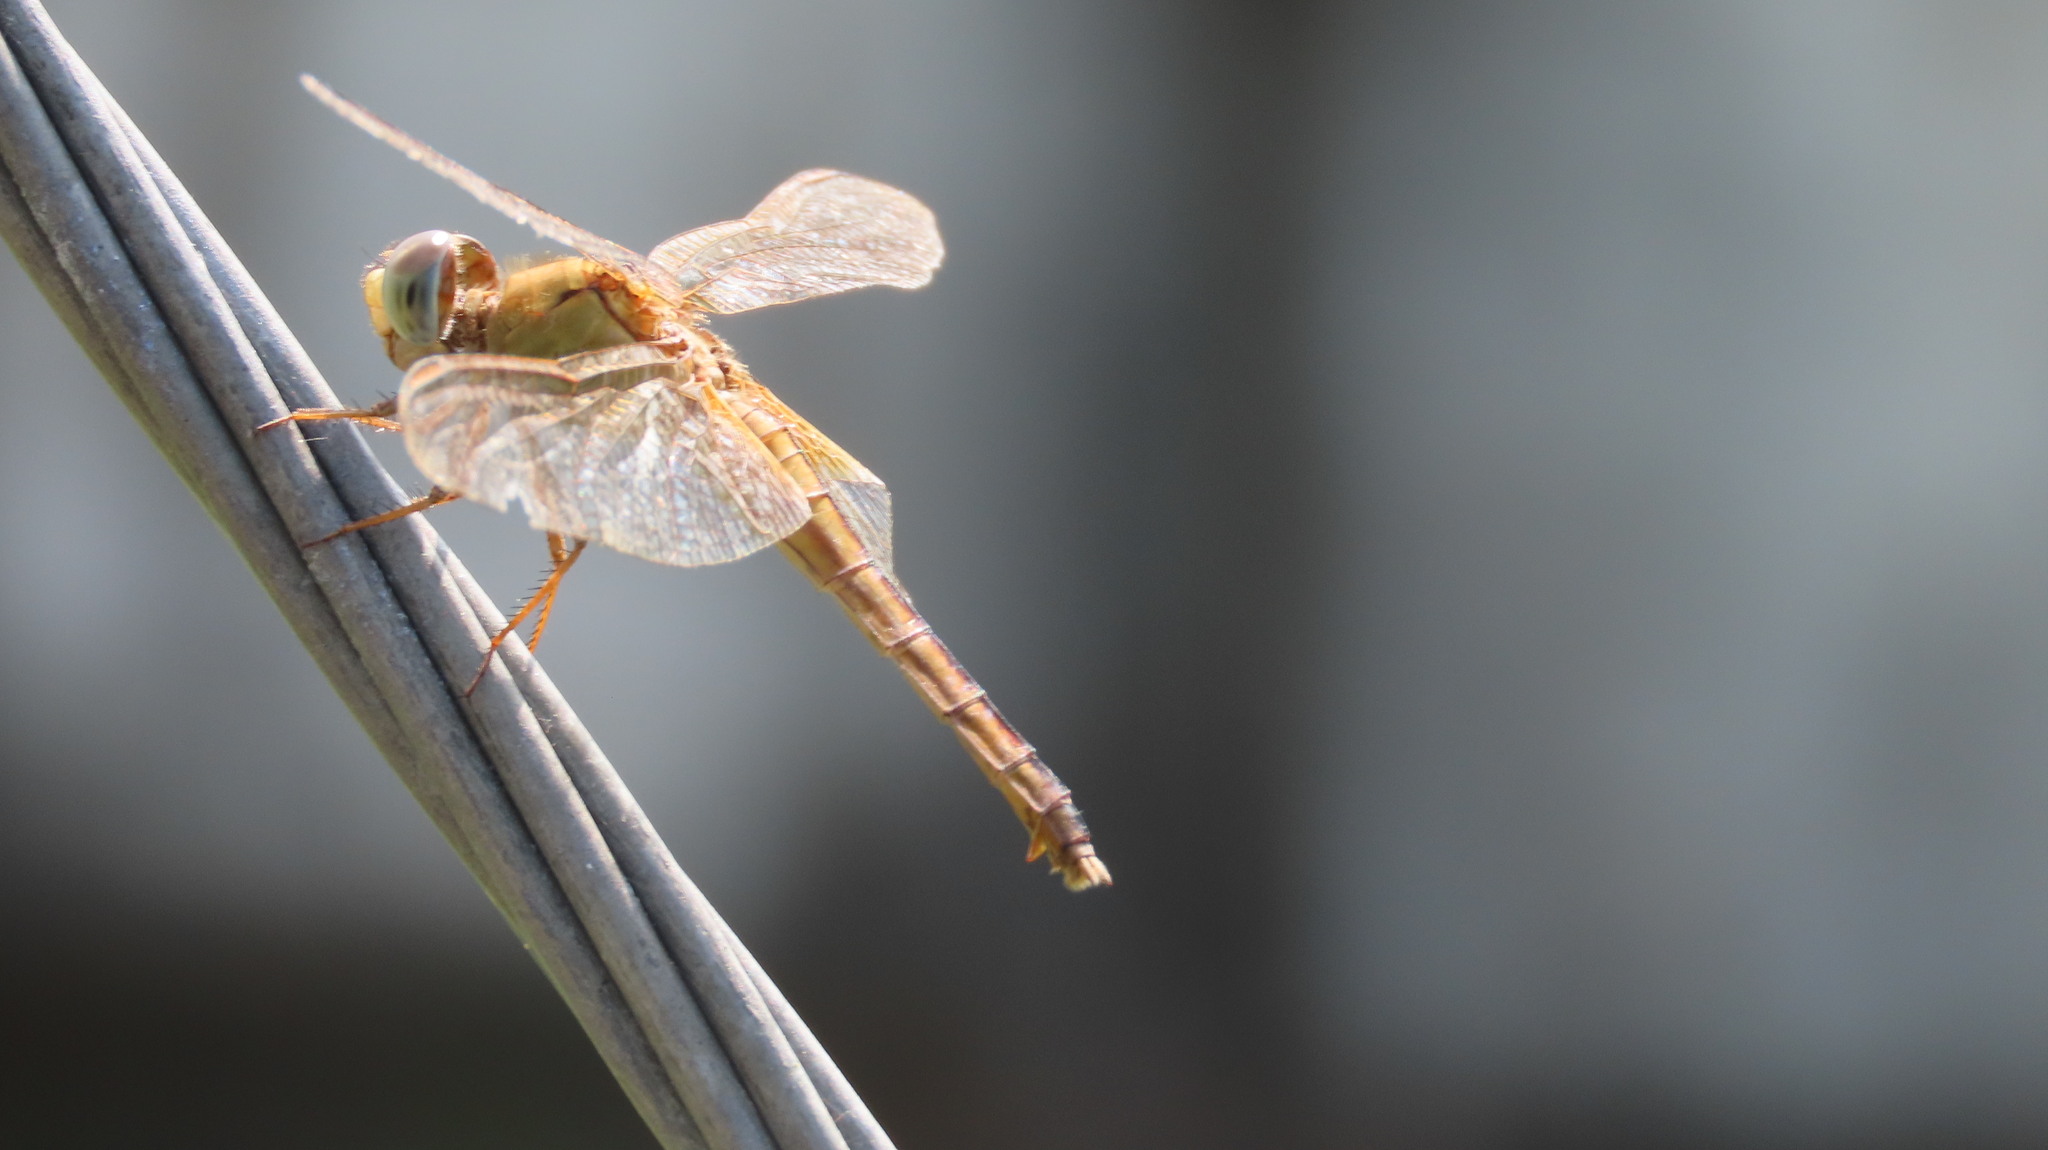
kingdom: Animalia
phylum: Arthropoda
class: Insecta
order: Odonata
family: Libellulidae
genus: Crocothemis
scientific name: Crocothemis servilia
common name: Scarlet skimmer
